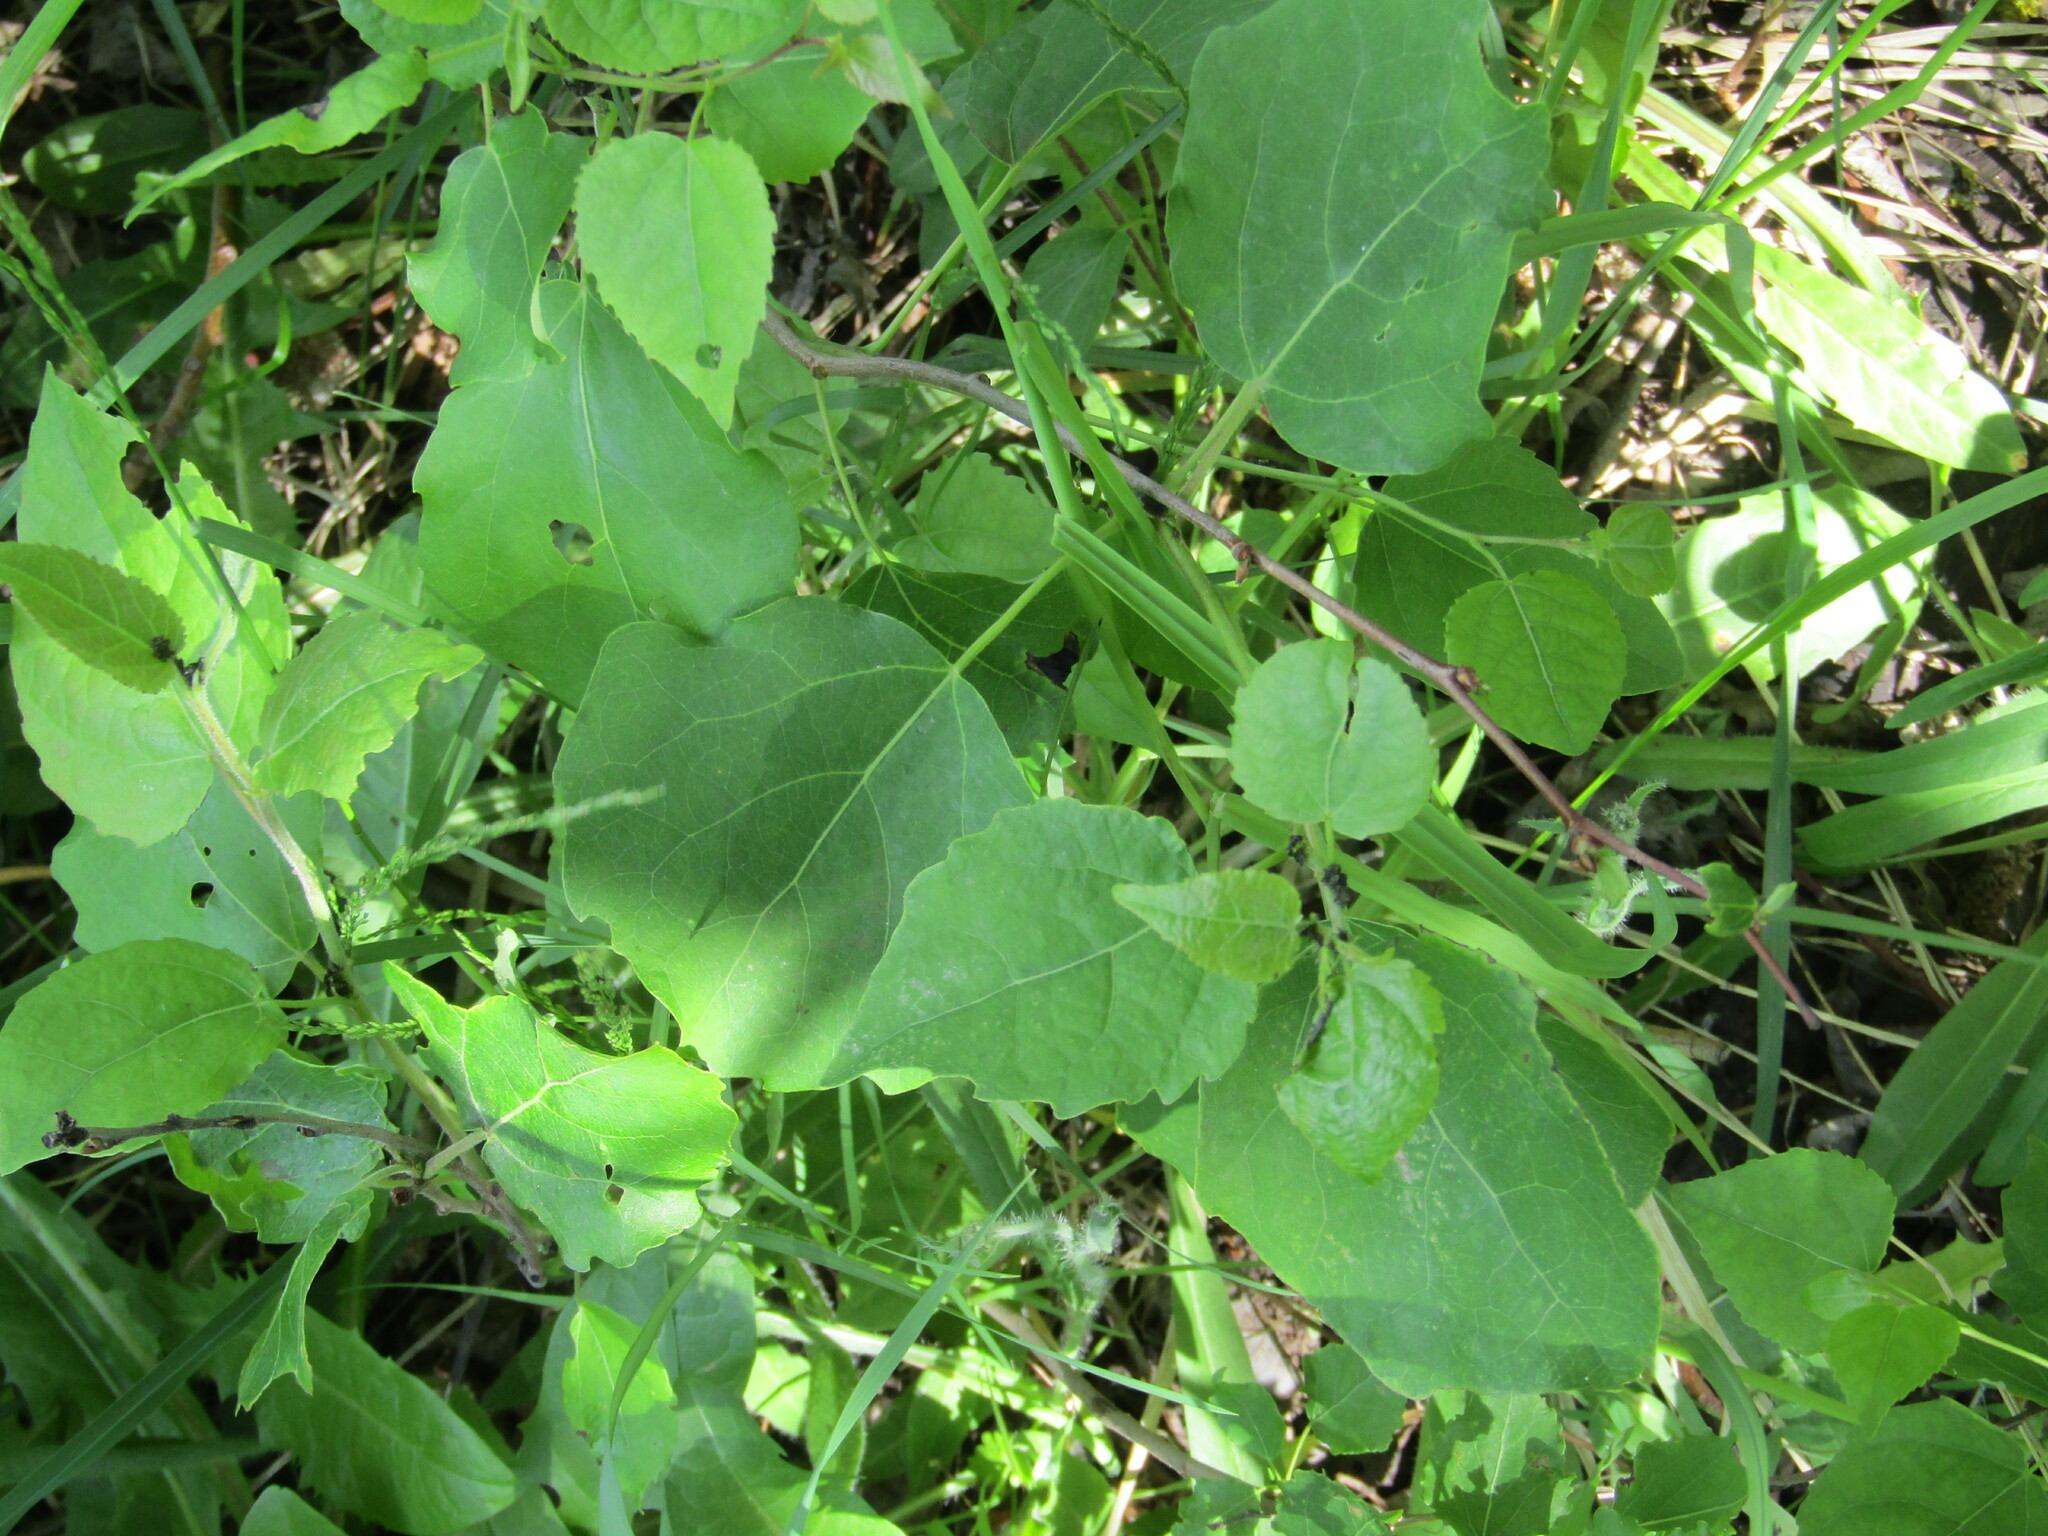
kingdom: Plantae
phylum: Tracheophyta
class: Magnoliopsida
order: Malpighiales
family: Salicaceae
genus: Populus
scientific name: Populus tremula
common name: European aspen
